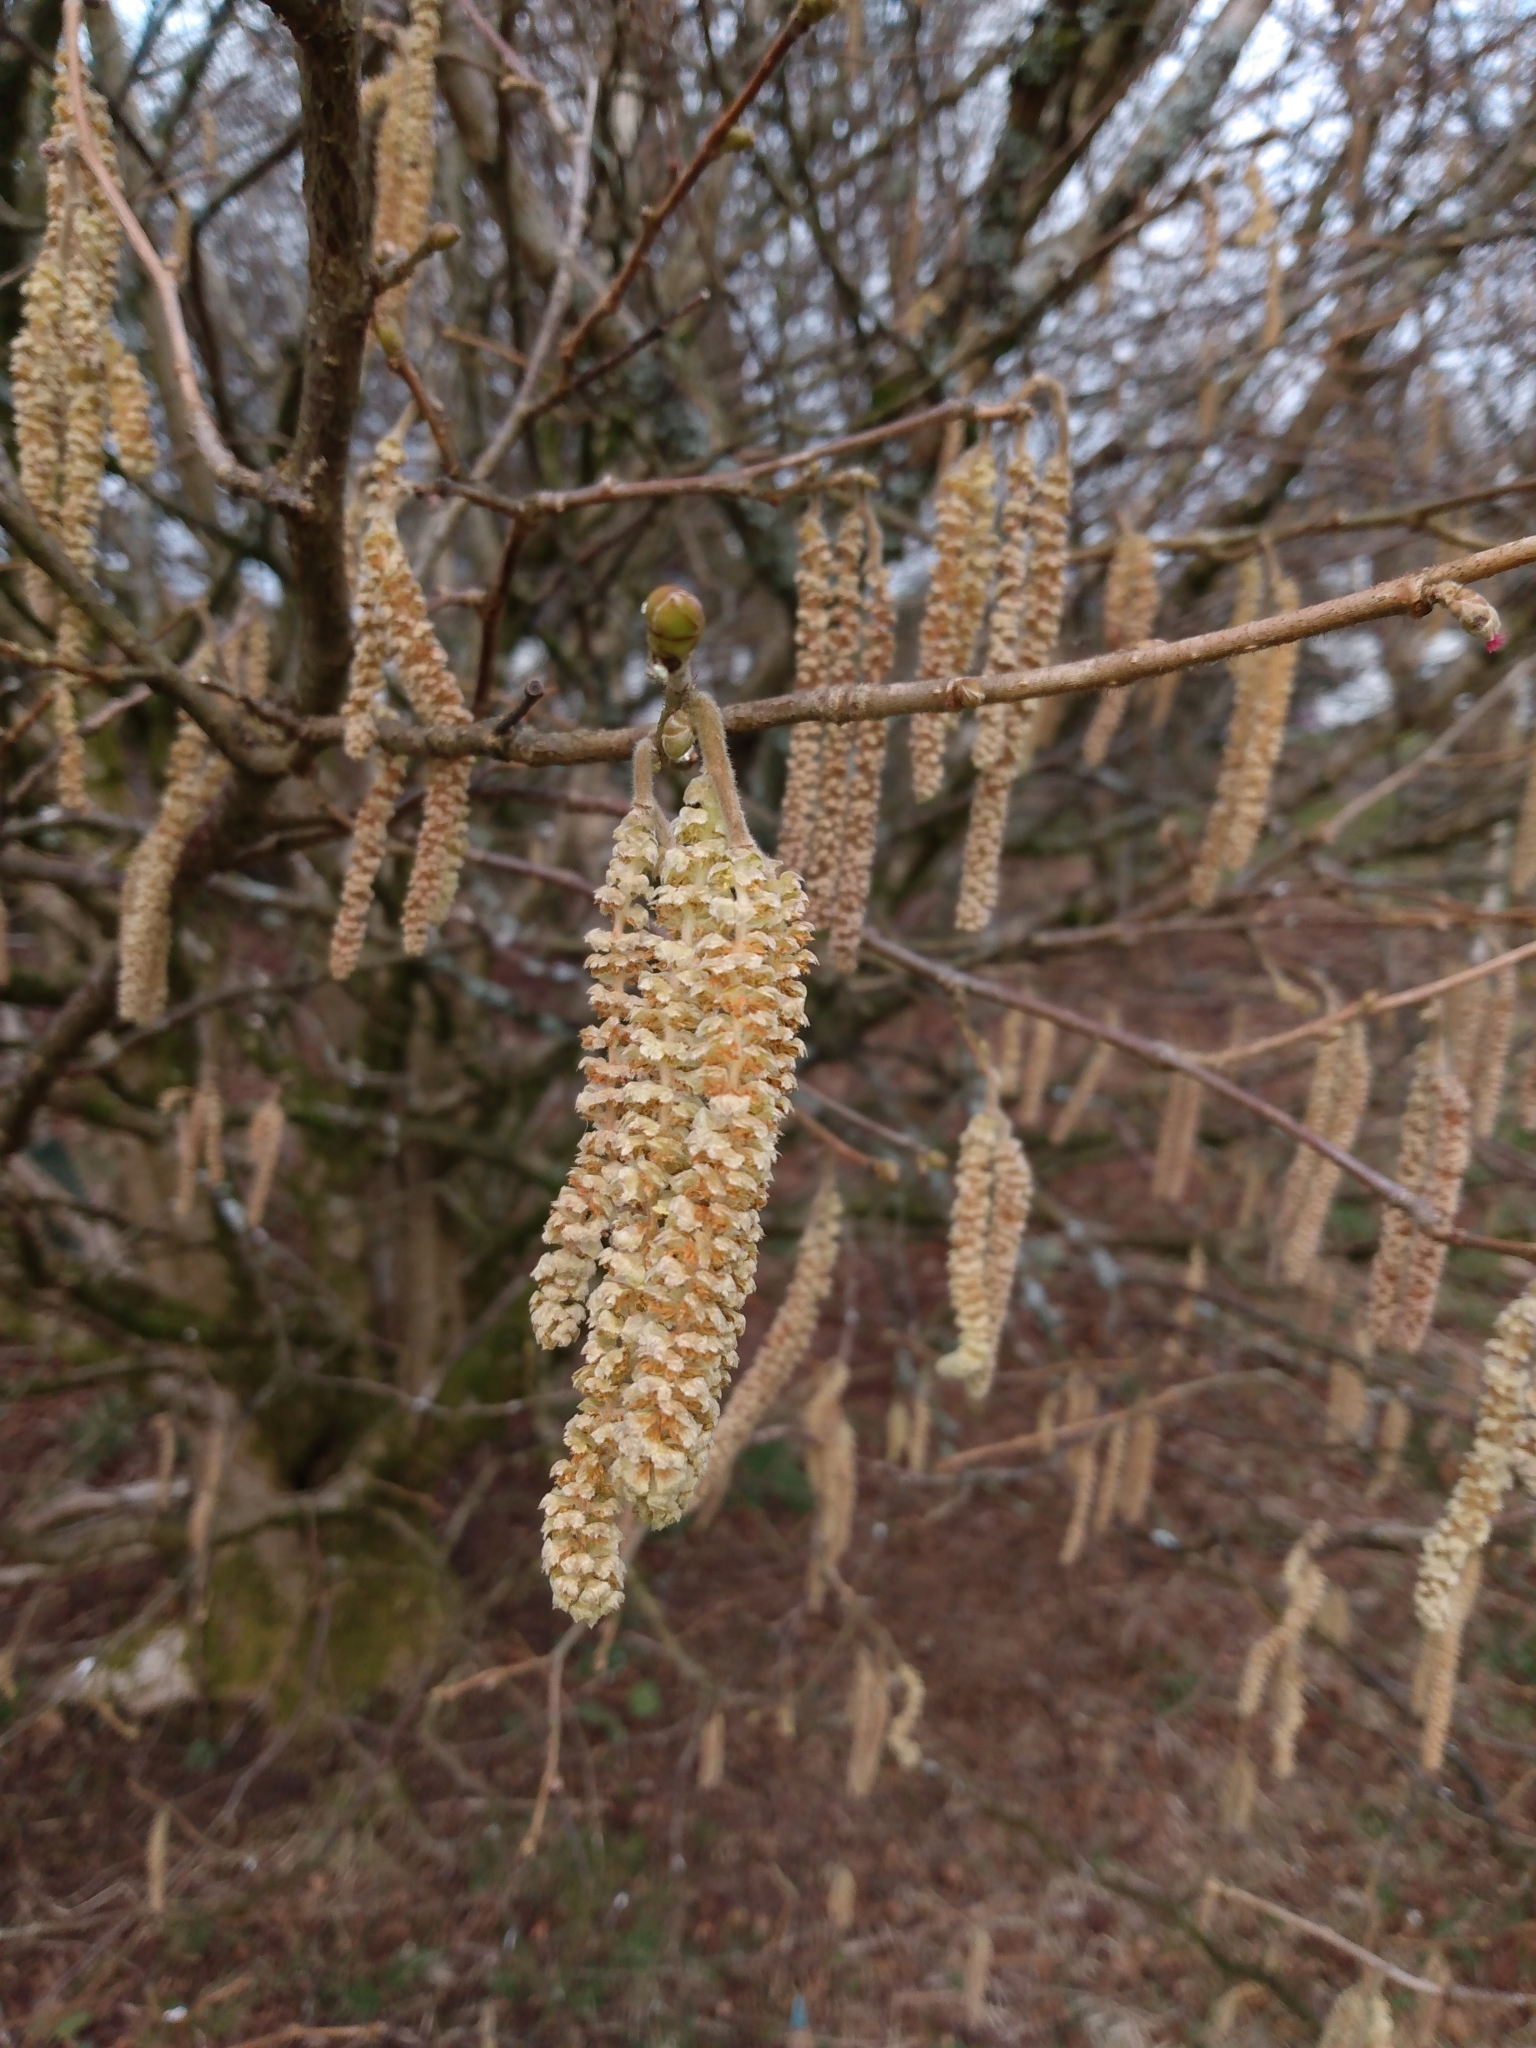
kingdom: Plantae
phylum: Tracheophyta
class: Magnoliopsida
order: Fagales
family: Betulaceae
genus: Corylus
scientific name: Corylus avellana
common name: European hazel
